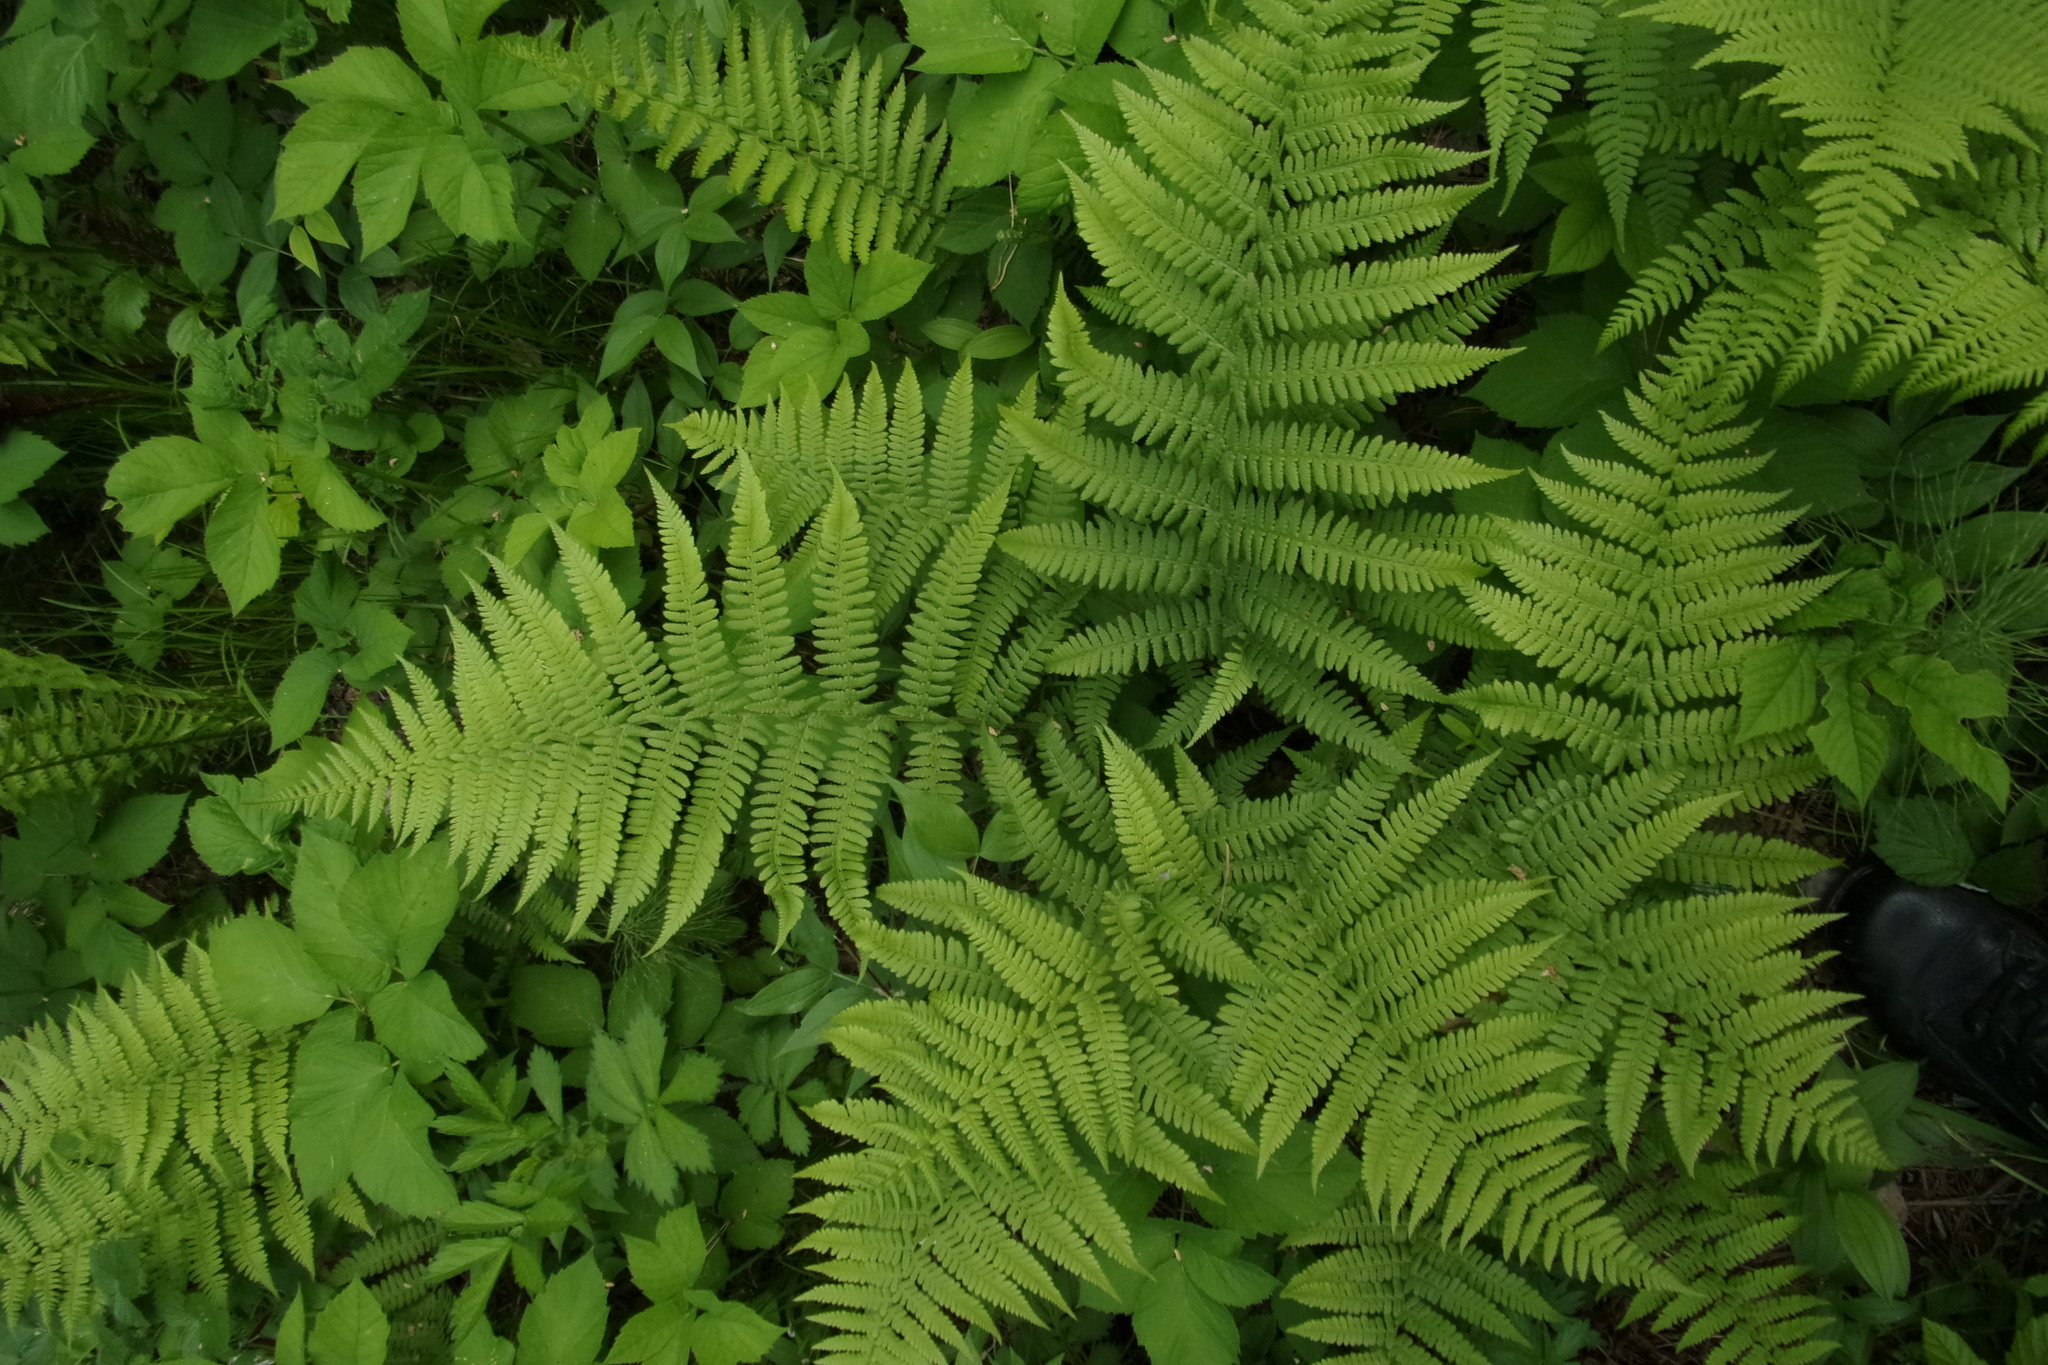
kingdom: Plantae
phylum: Tracheophyta
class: Polypodiopsida
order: Polypodiales
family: Athyriaceae
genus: Athyrium
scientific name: Athyrium filix-femina
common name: Lady fern
